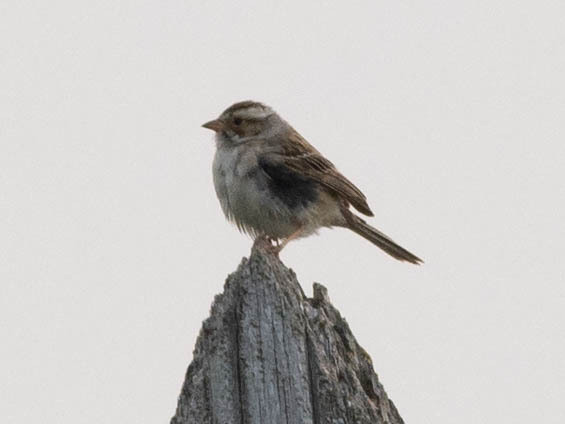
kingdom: Animalia
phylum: Chordata
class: Aves
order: Passeriformes
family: Passerellidae
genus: Spizella
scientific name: Spizella pallida
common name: Clay-colored sparrow
